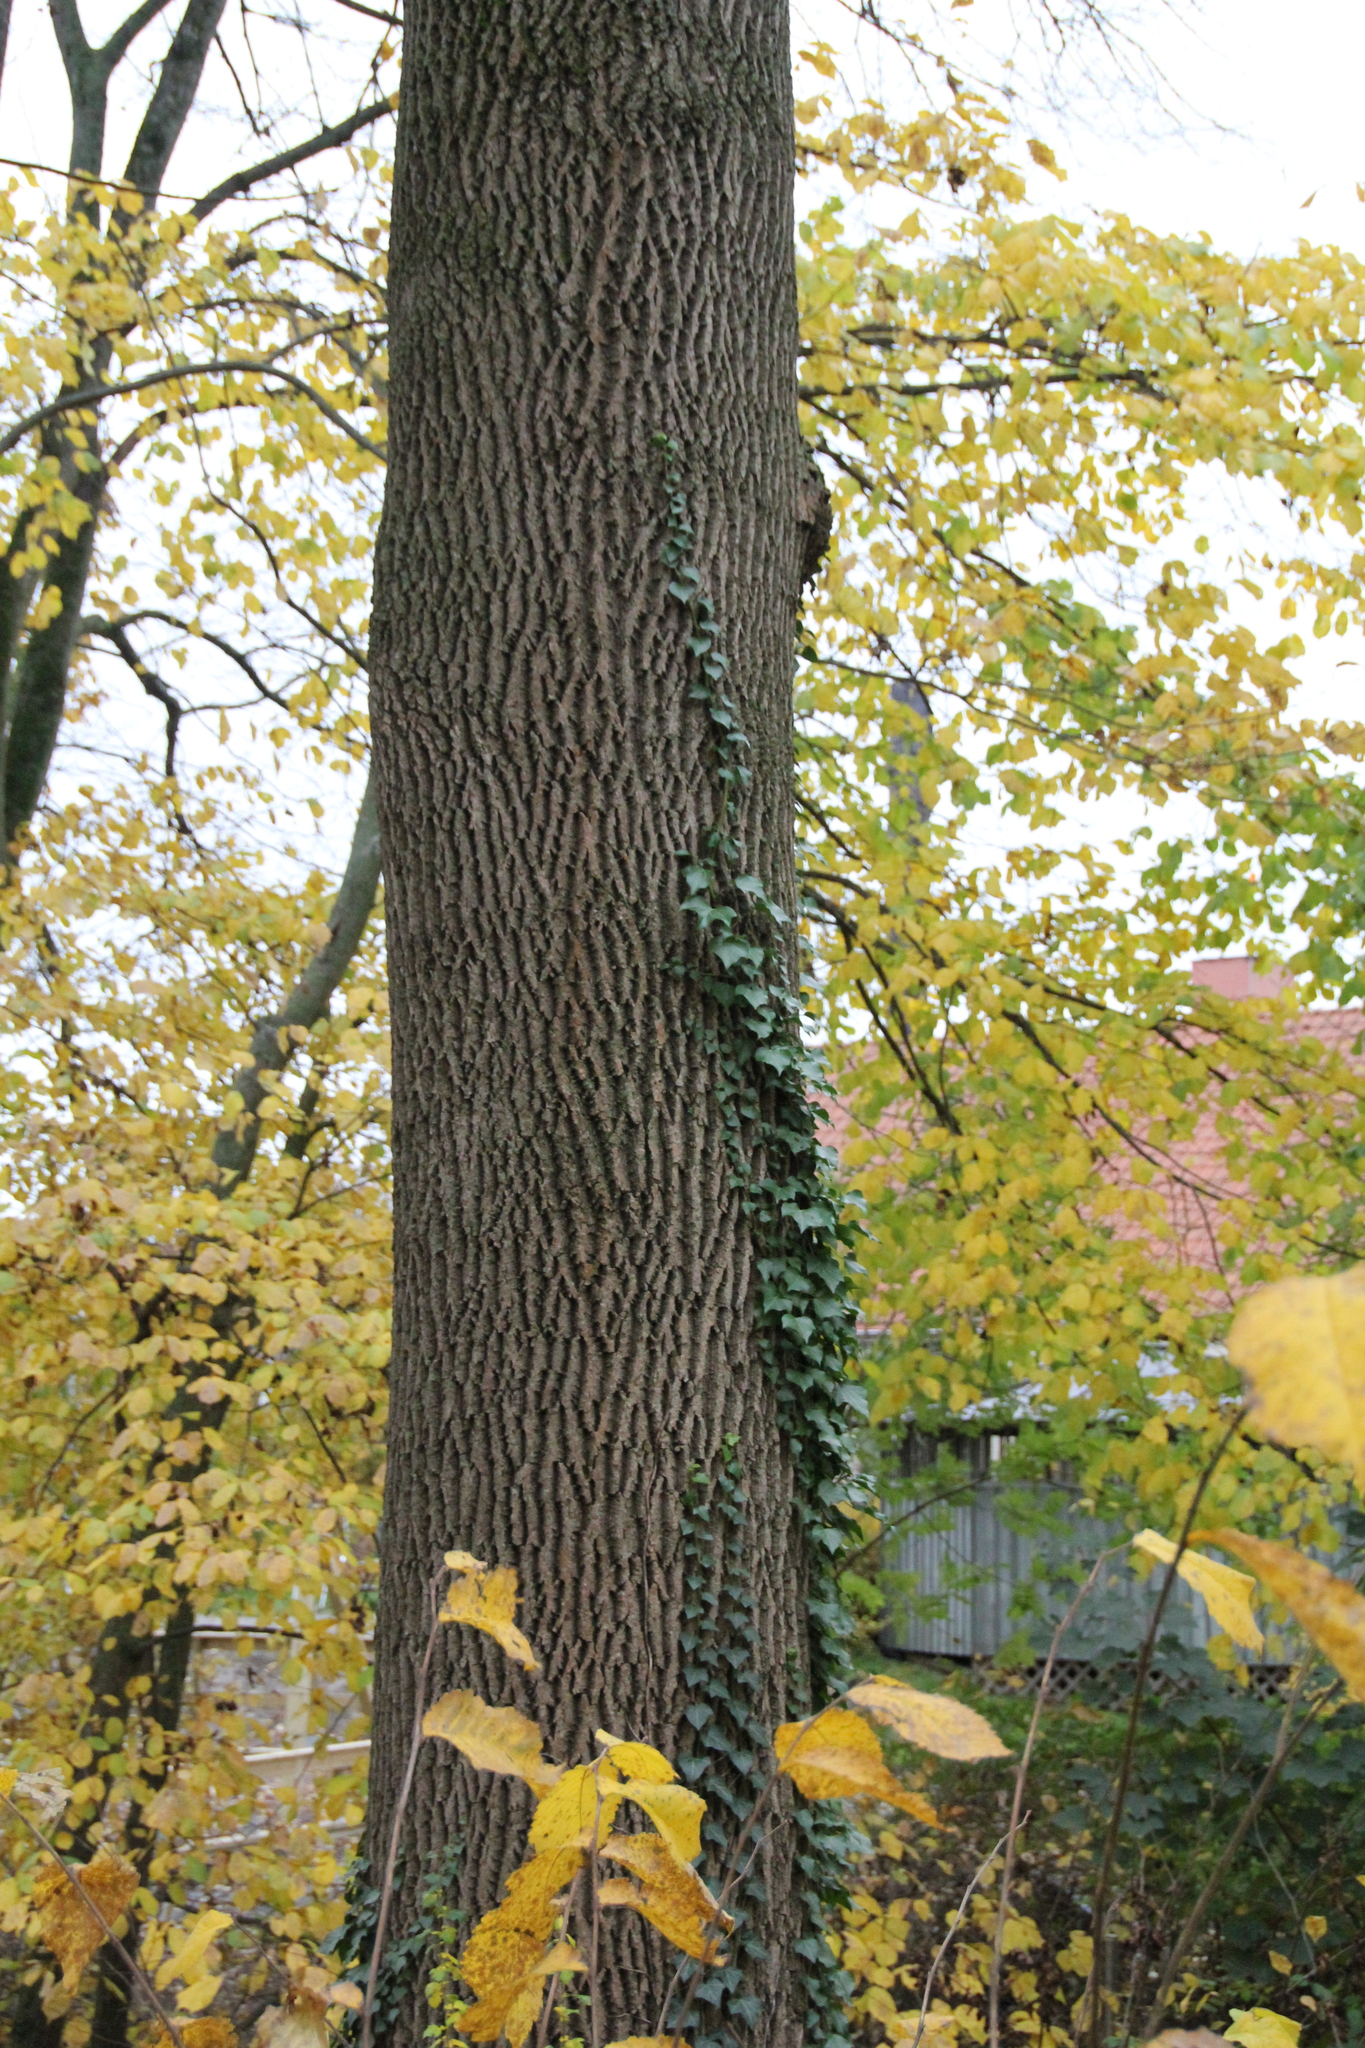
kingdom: Plantae
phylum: Tracheophyta
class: Magnoliopsida
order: Apiales
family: Araliaceae
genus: Hedera
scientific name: Hedera helix
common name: Ivy
